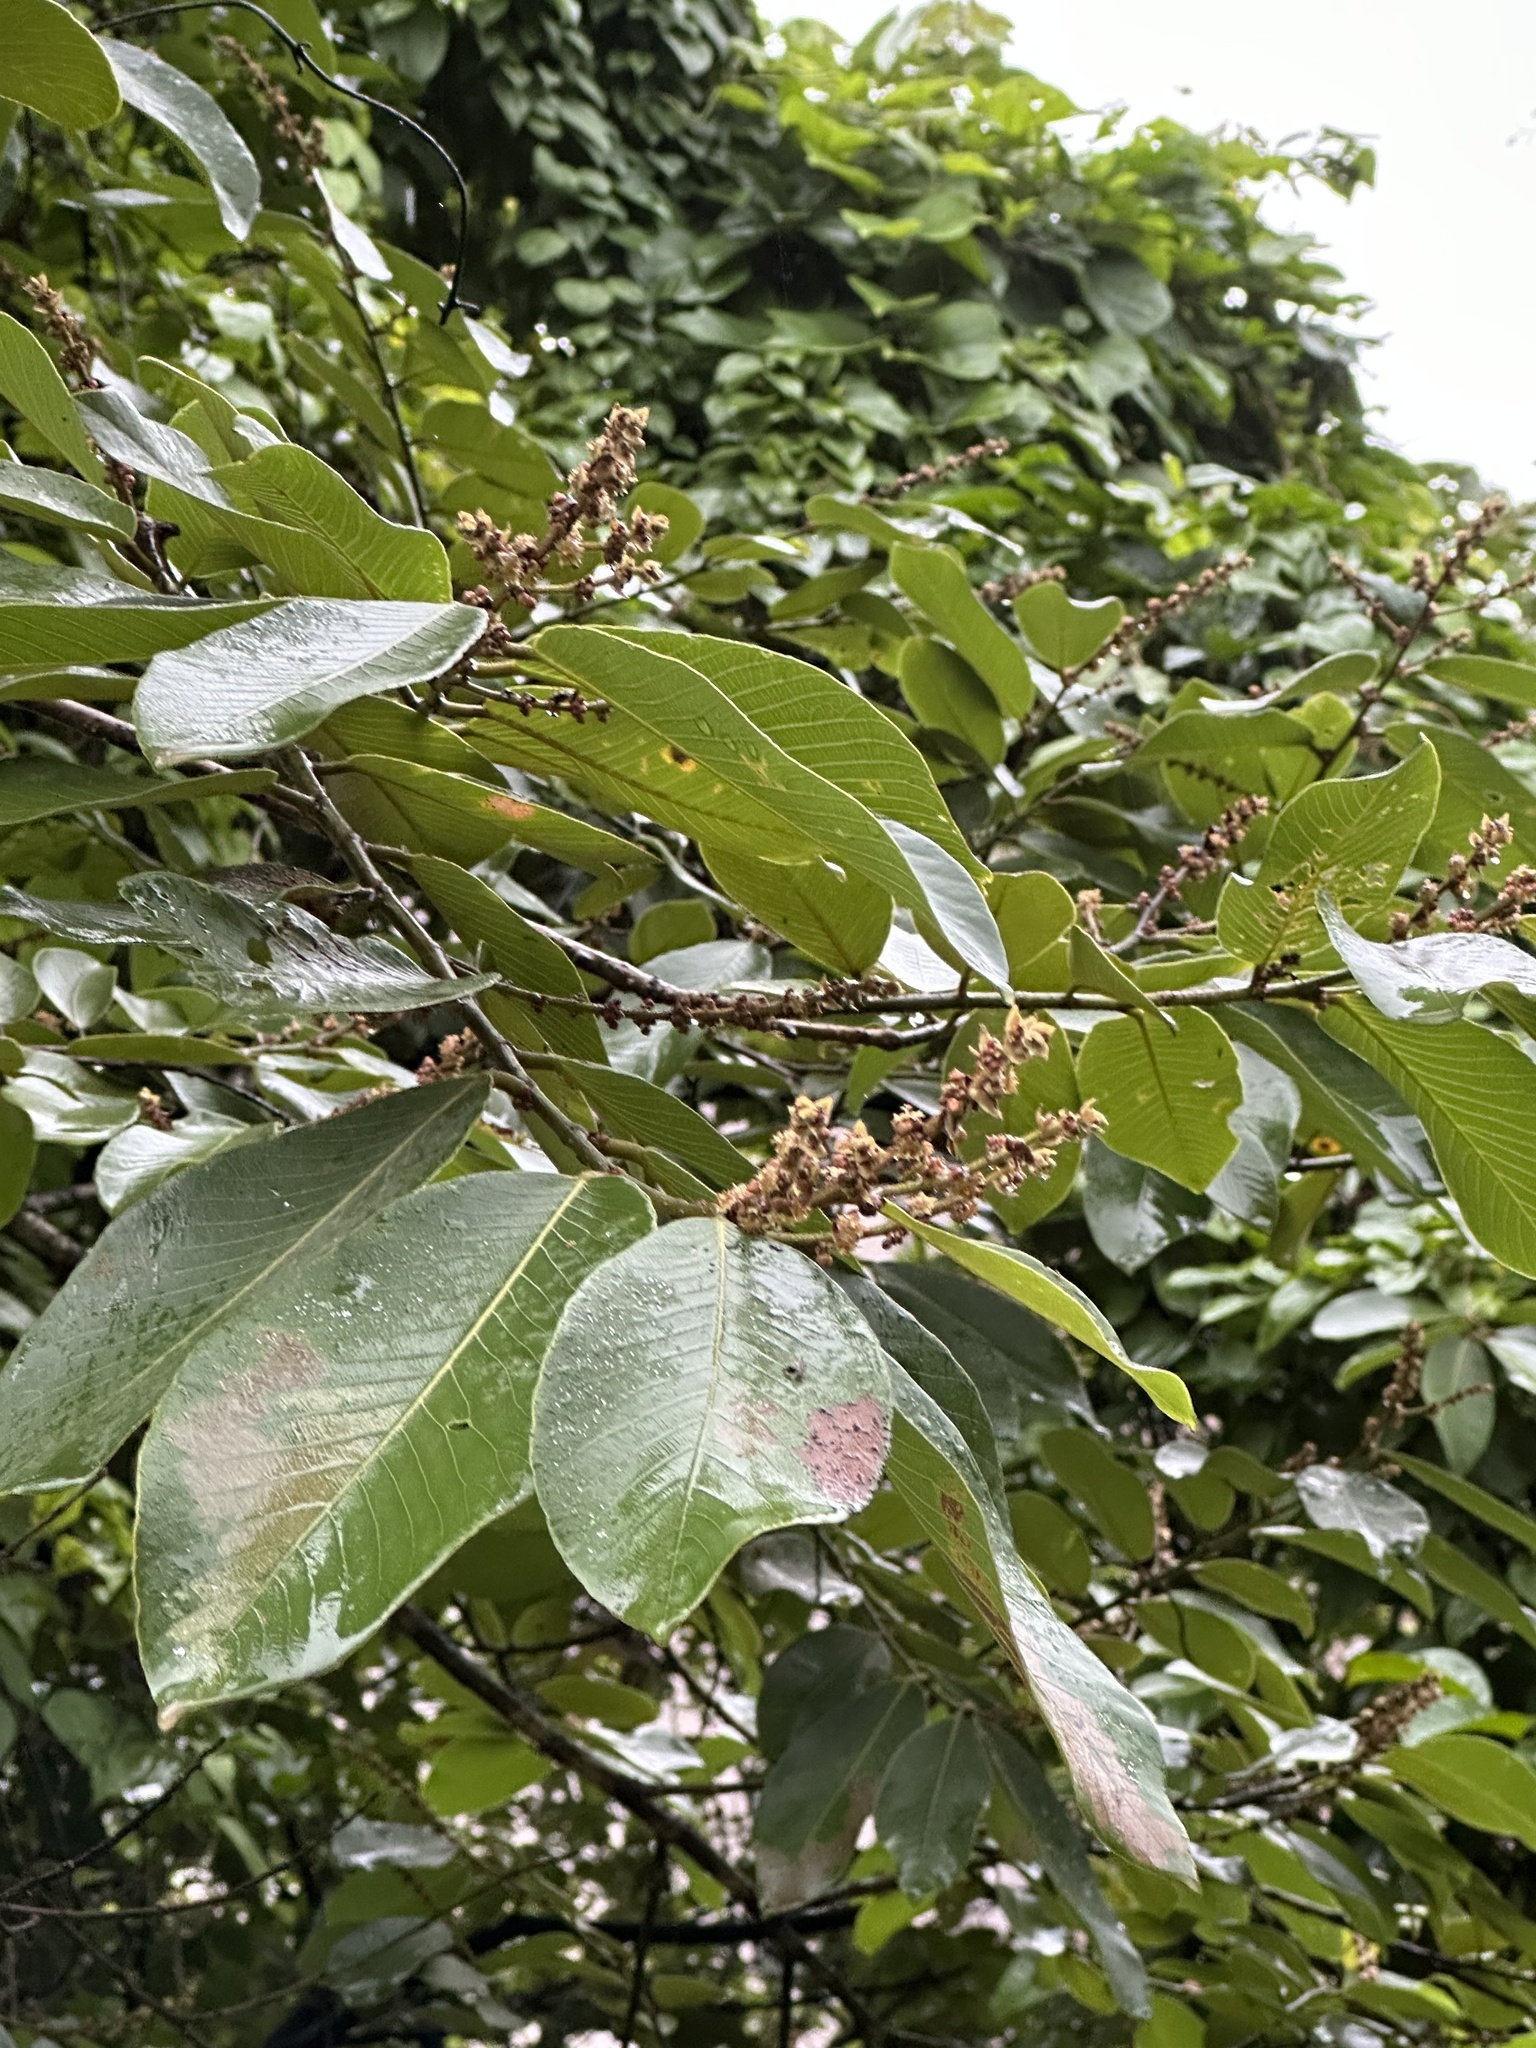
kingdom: Plantae
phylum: Tracheophyta
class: Magnoliopsida
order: Malpighiales
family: Phyllanthaceae
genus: Bridelia
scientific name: Bridelia retusa
